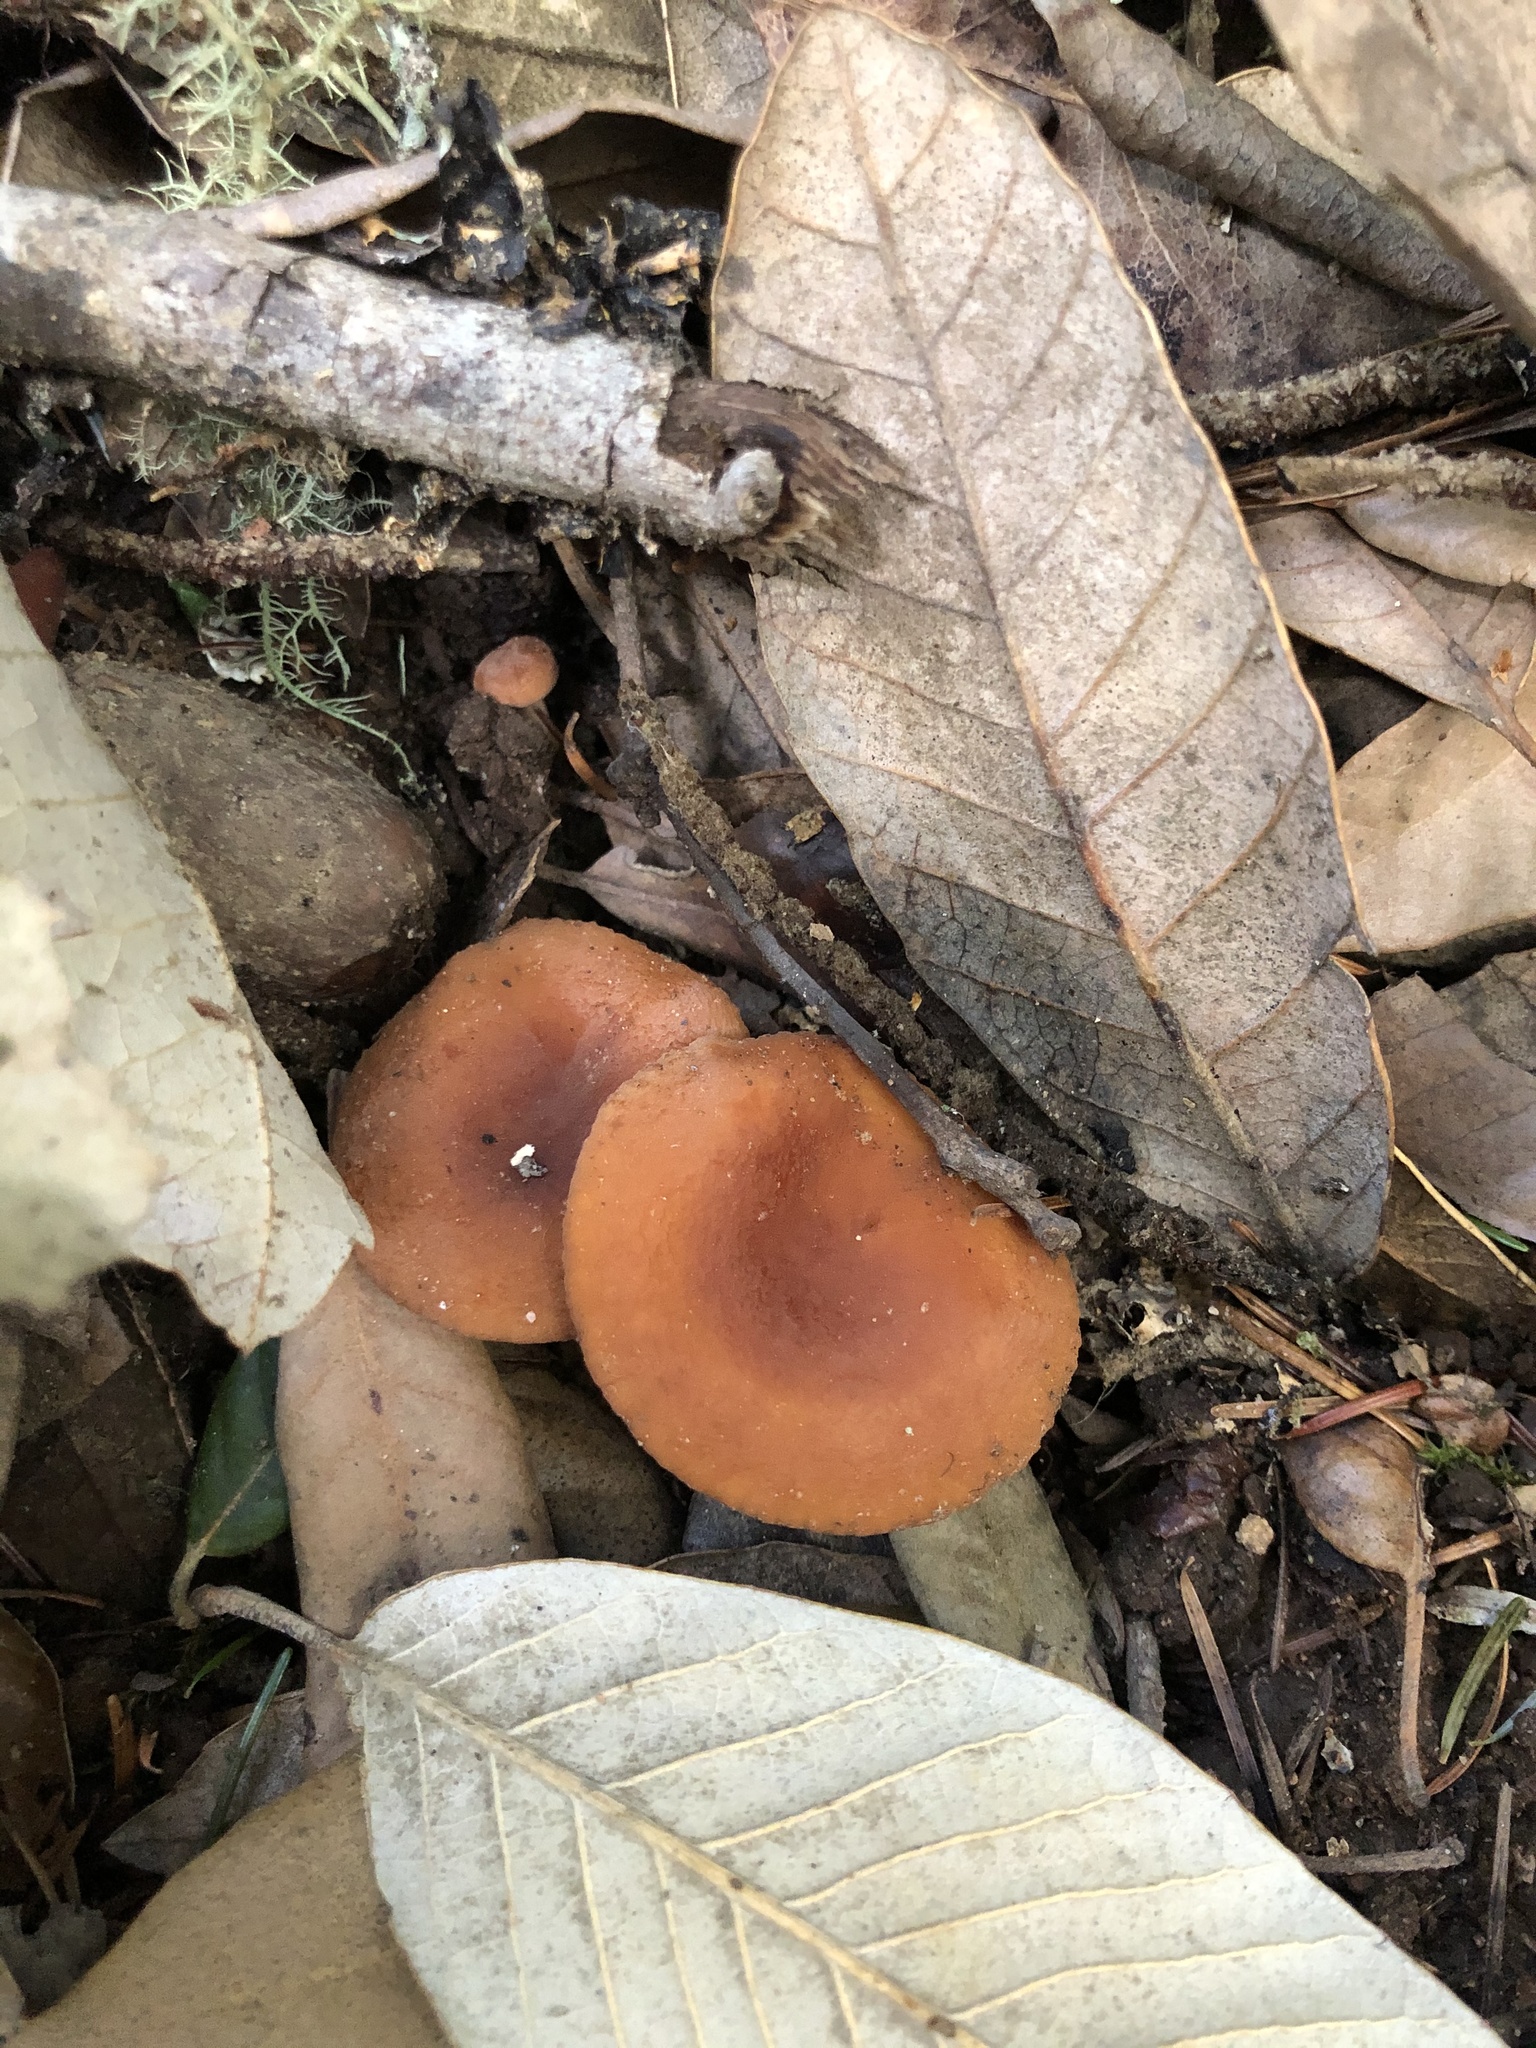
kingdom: Fungi
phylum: Basidiomycota
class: Agaricomycetes
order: Russulales
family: Russulaceae
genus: Lactarius
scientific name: Lactarius rubidus
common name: Candy cap
